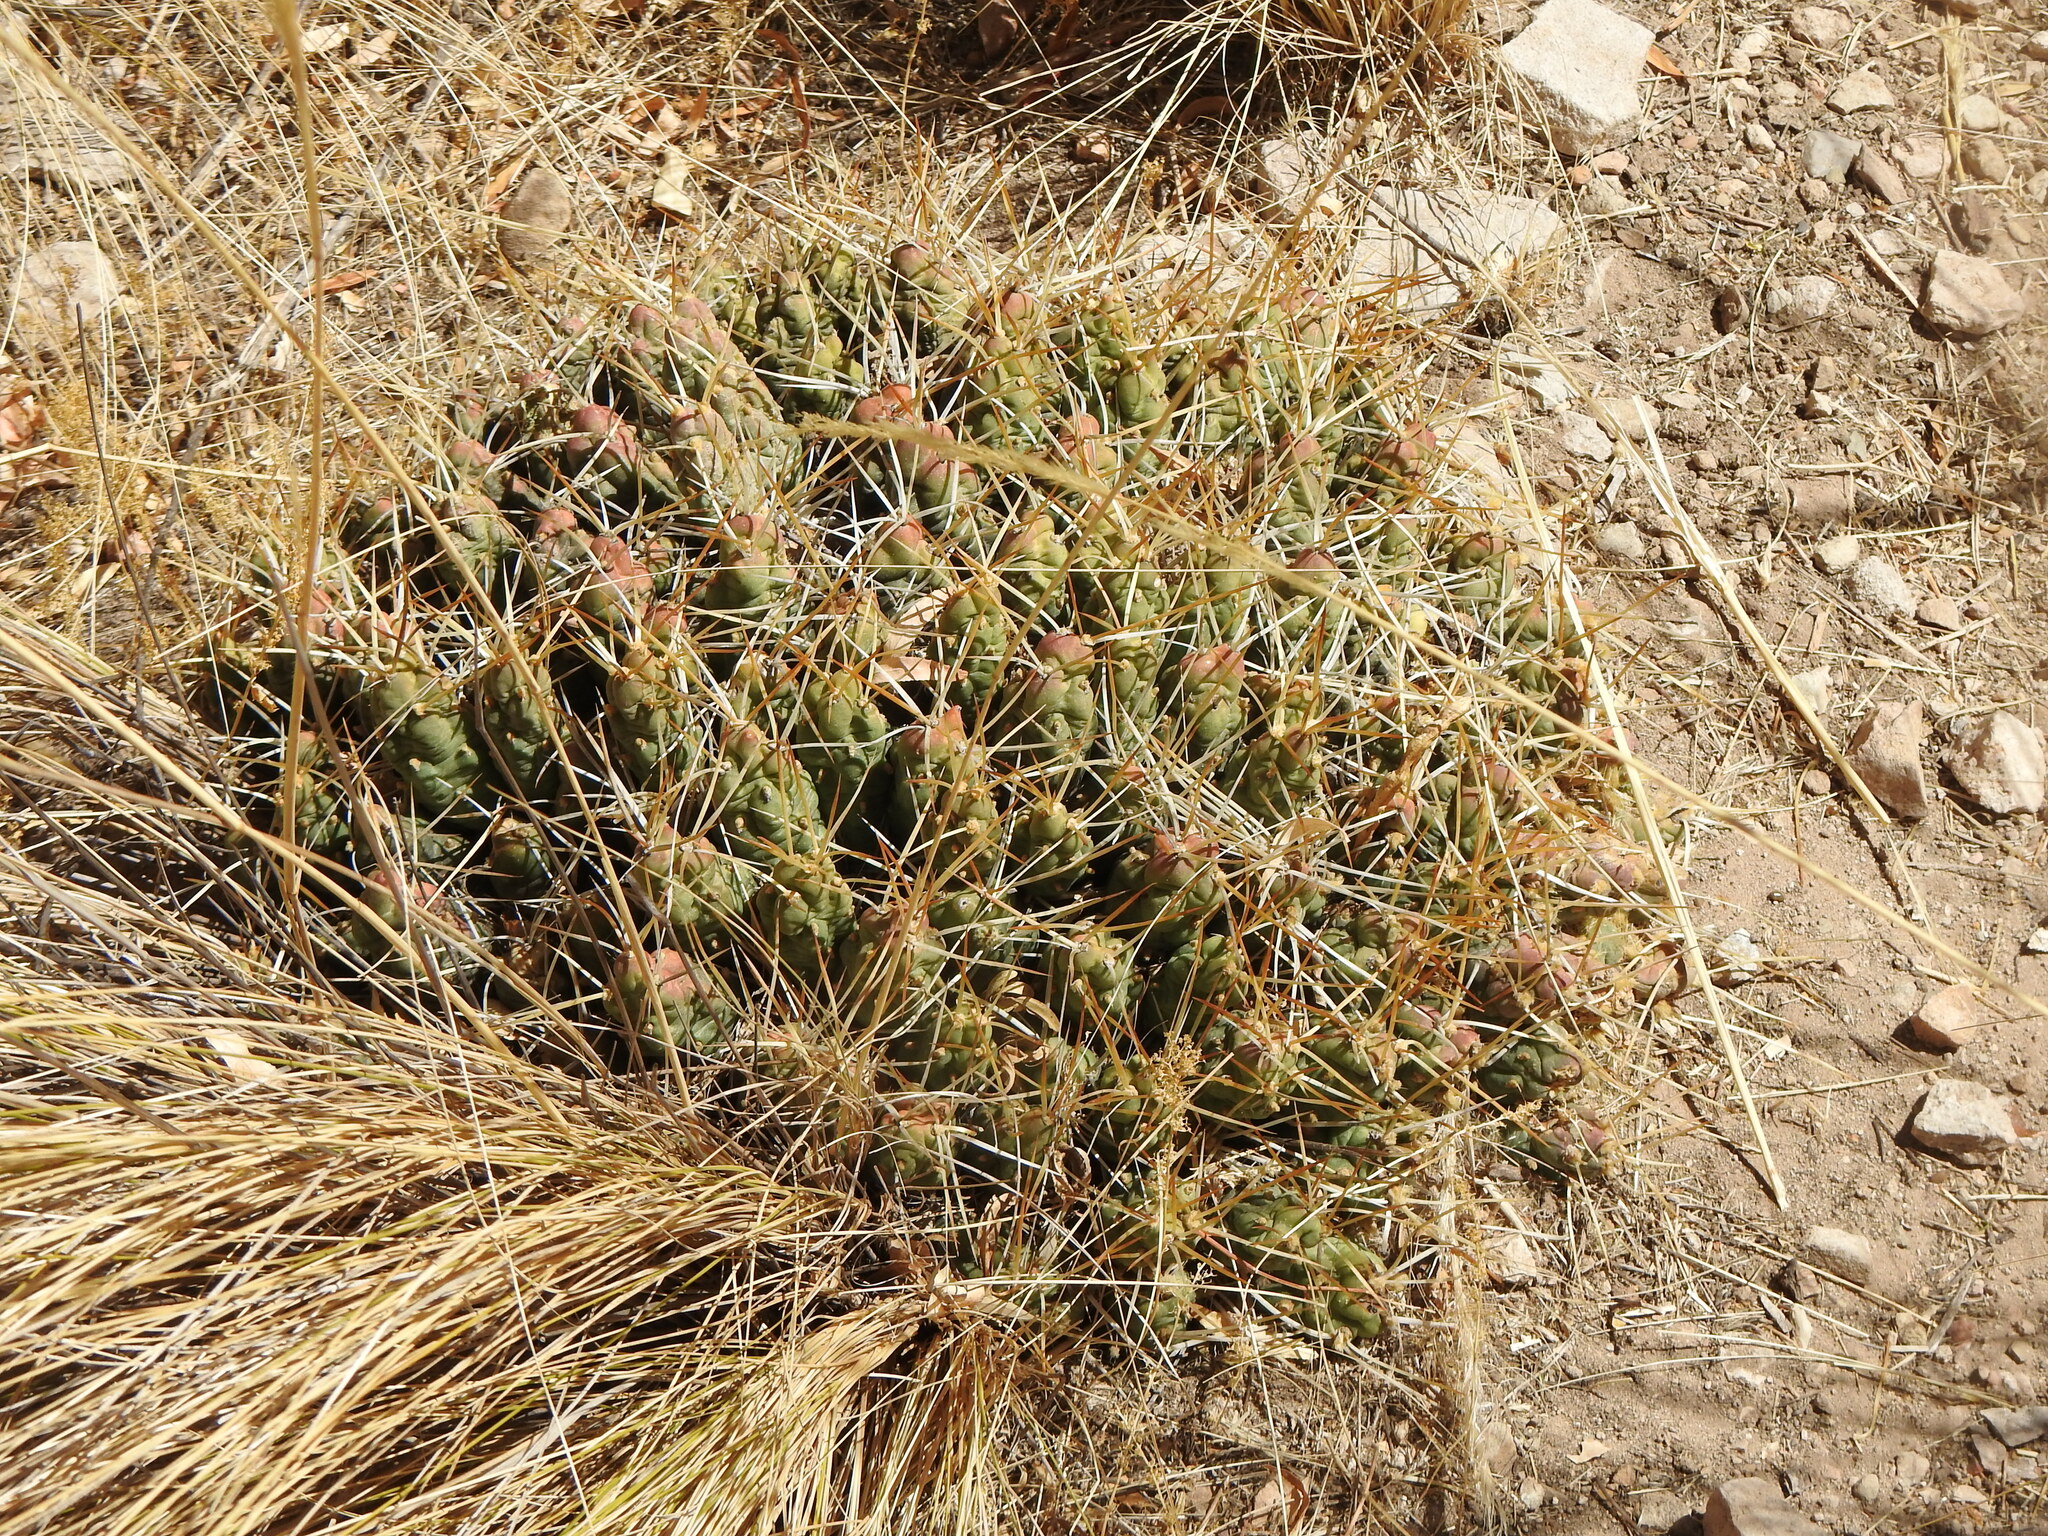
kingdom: Plantae
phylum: Tracheophyta
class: Magnoliopsida
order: Caryophyllales
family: Cactaceae
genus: Cumulopuntia
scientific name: Cumulopuntia chichensis
